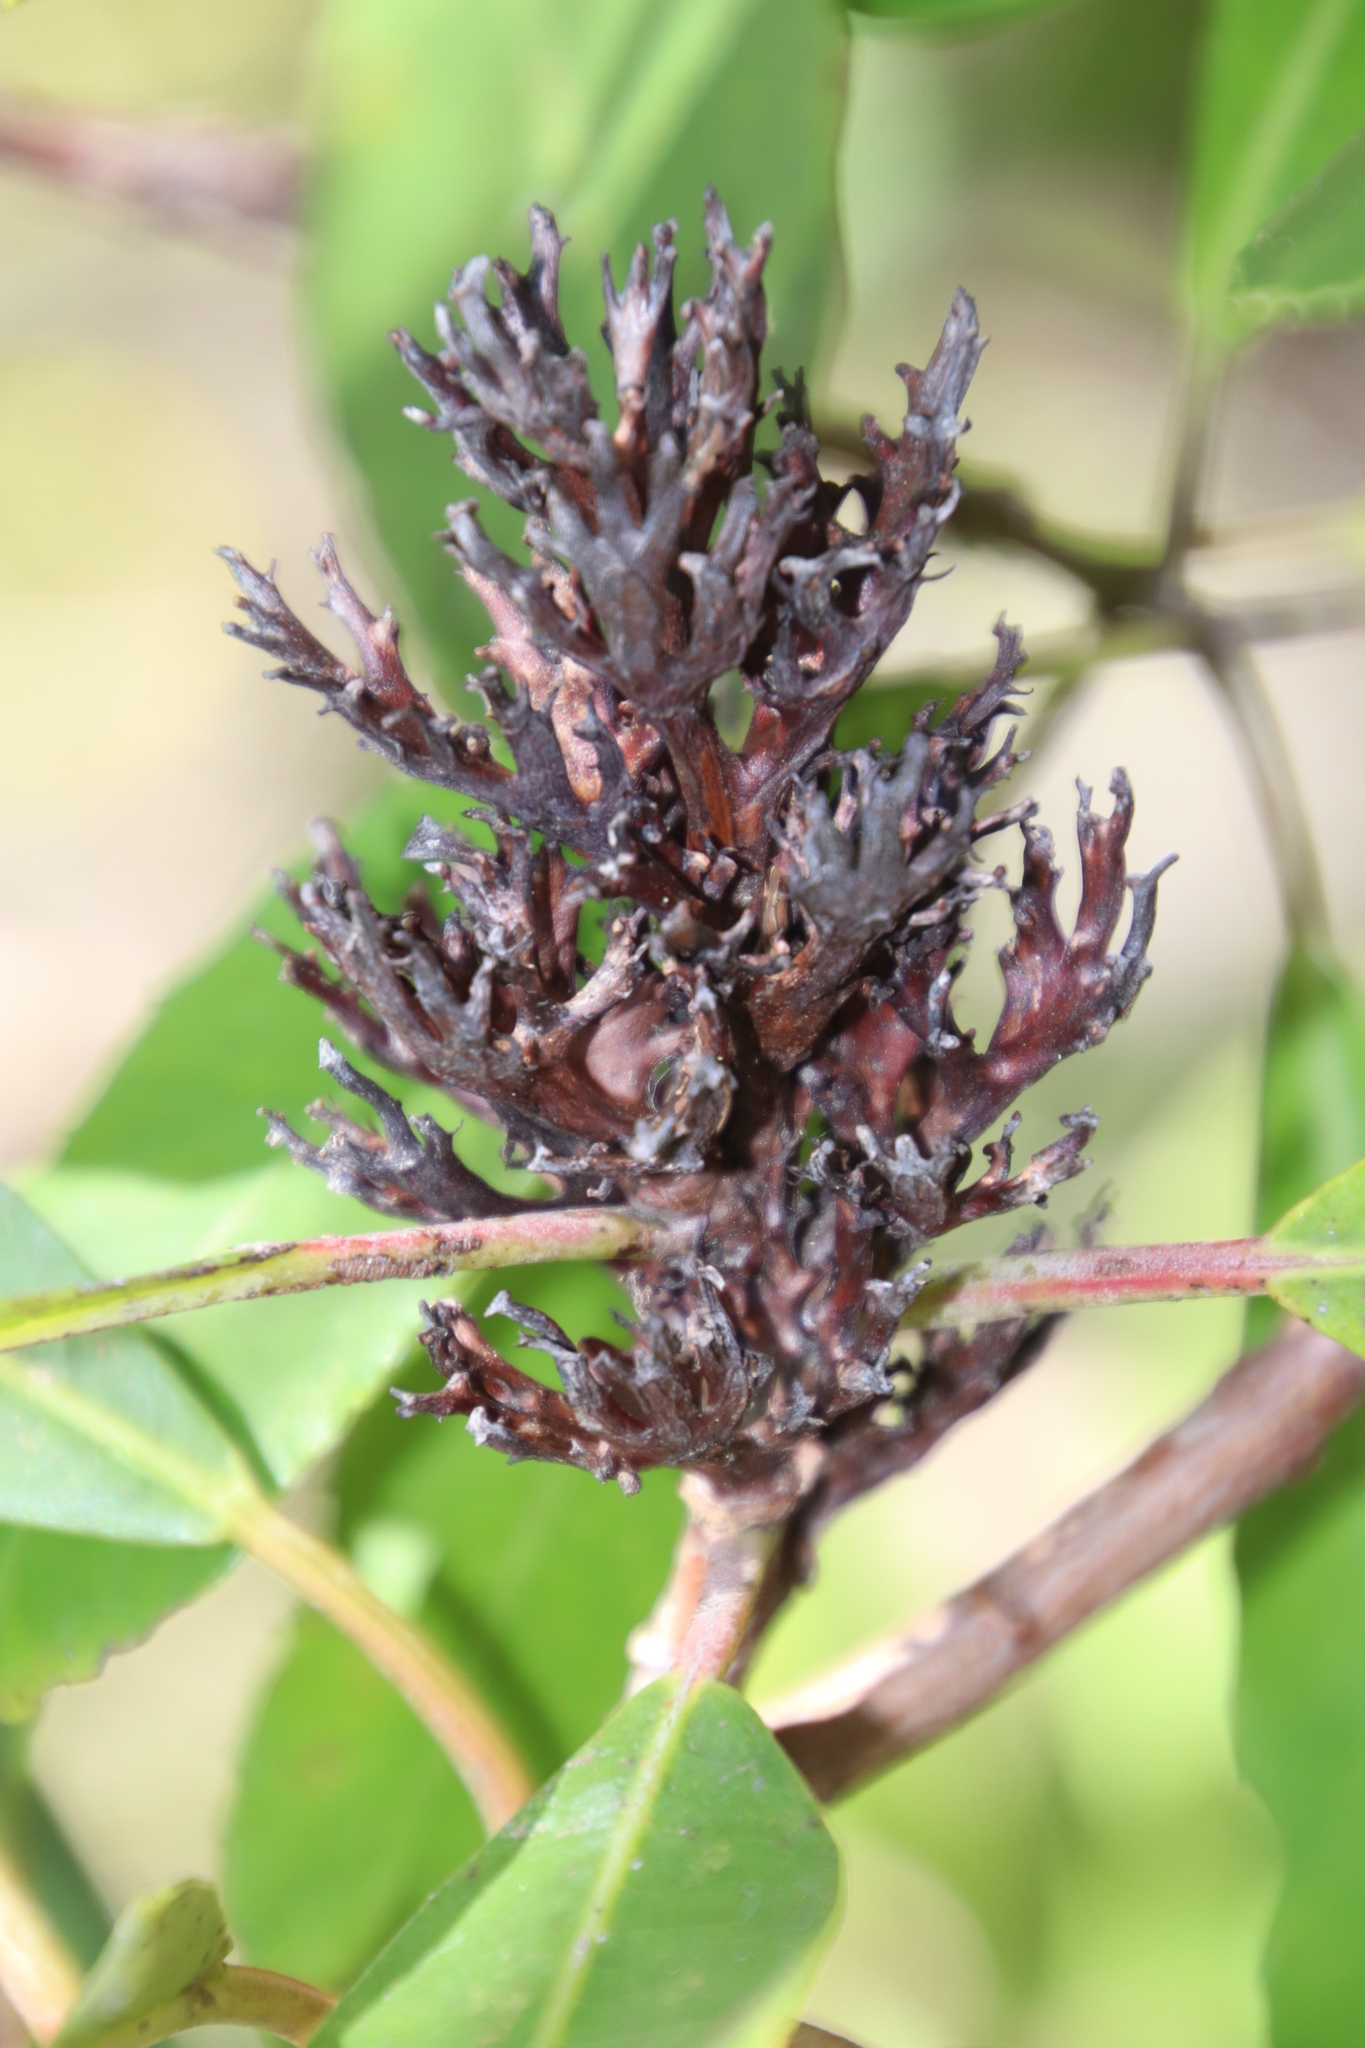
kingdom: Plantae
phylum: Tracheophyta
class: Magnoliopsida
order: Sapindales
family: Anacardiaceae
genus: Laurophyllus
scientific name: Laurophyllus capensis
